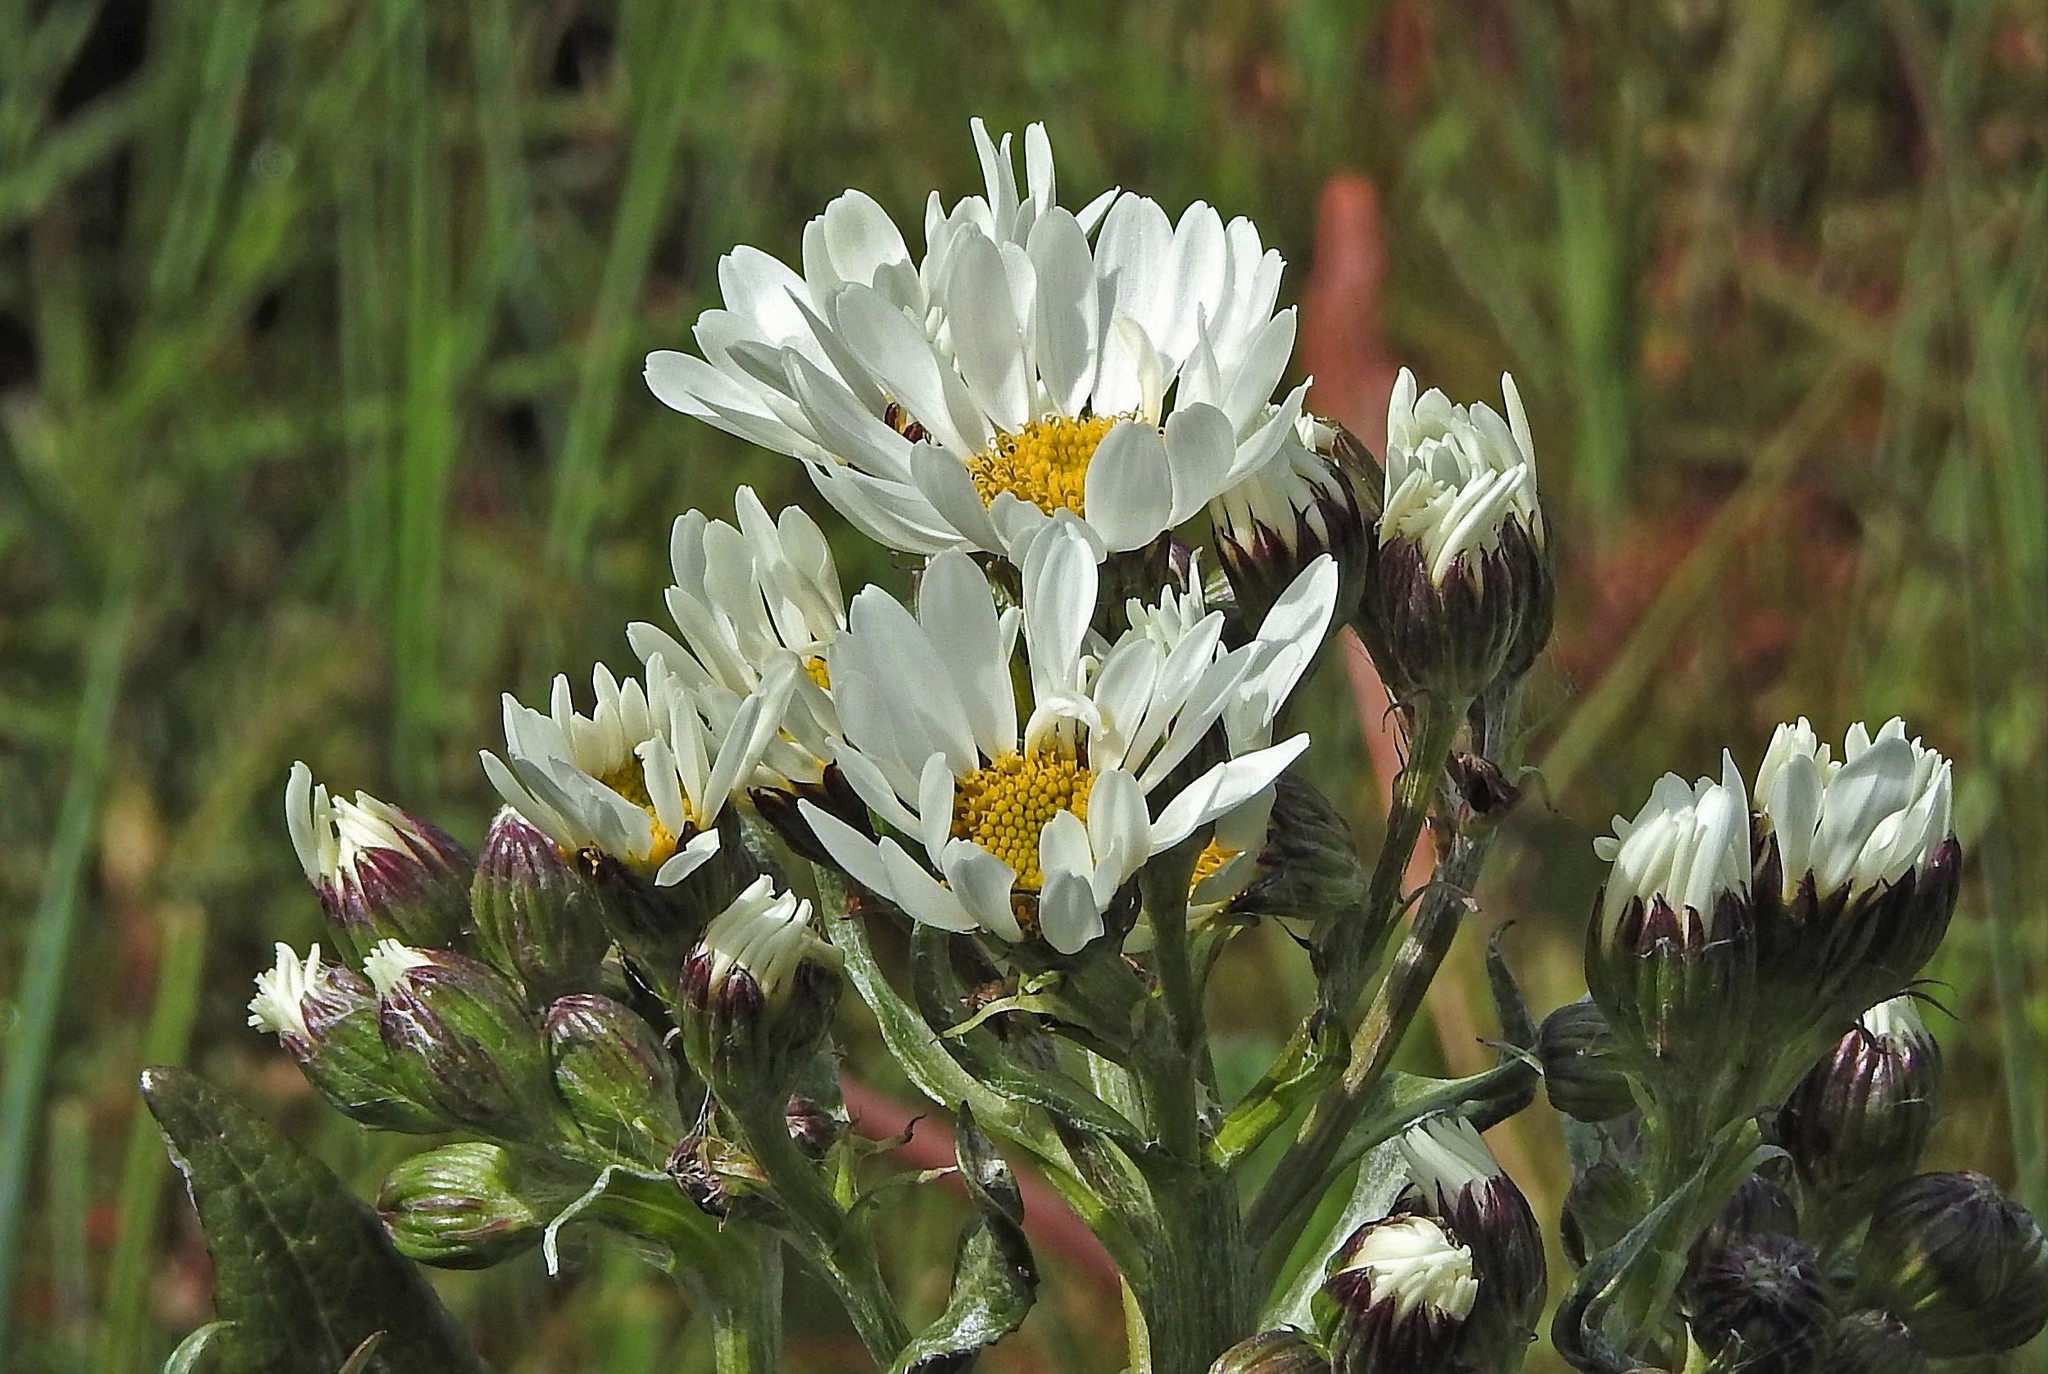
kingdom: Plantae
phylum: Tracheophyta
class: Magnoliopsida
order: Asterales
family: Asteraceae
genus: Senecio
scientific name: Senecio smithii
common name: Magellan ragwort
